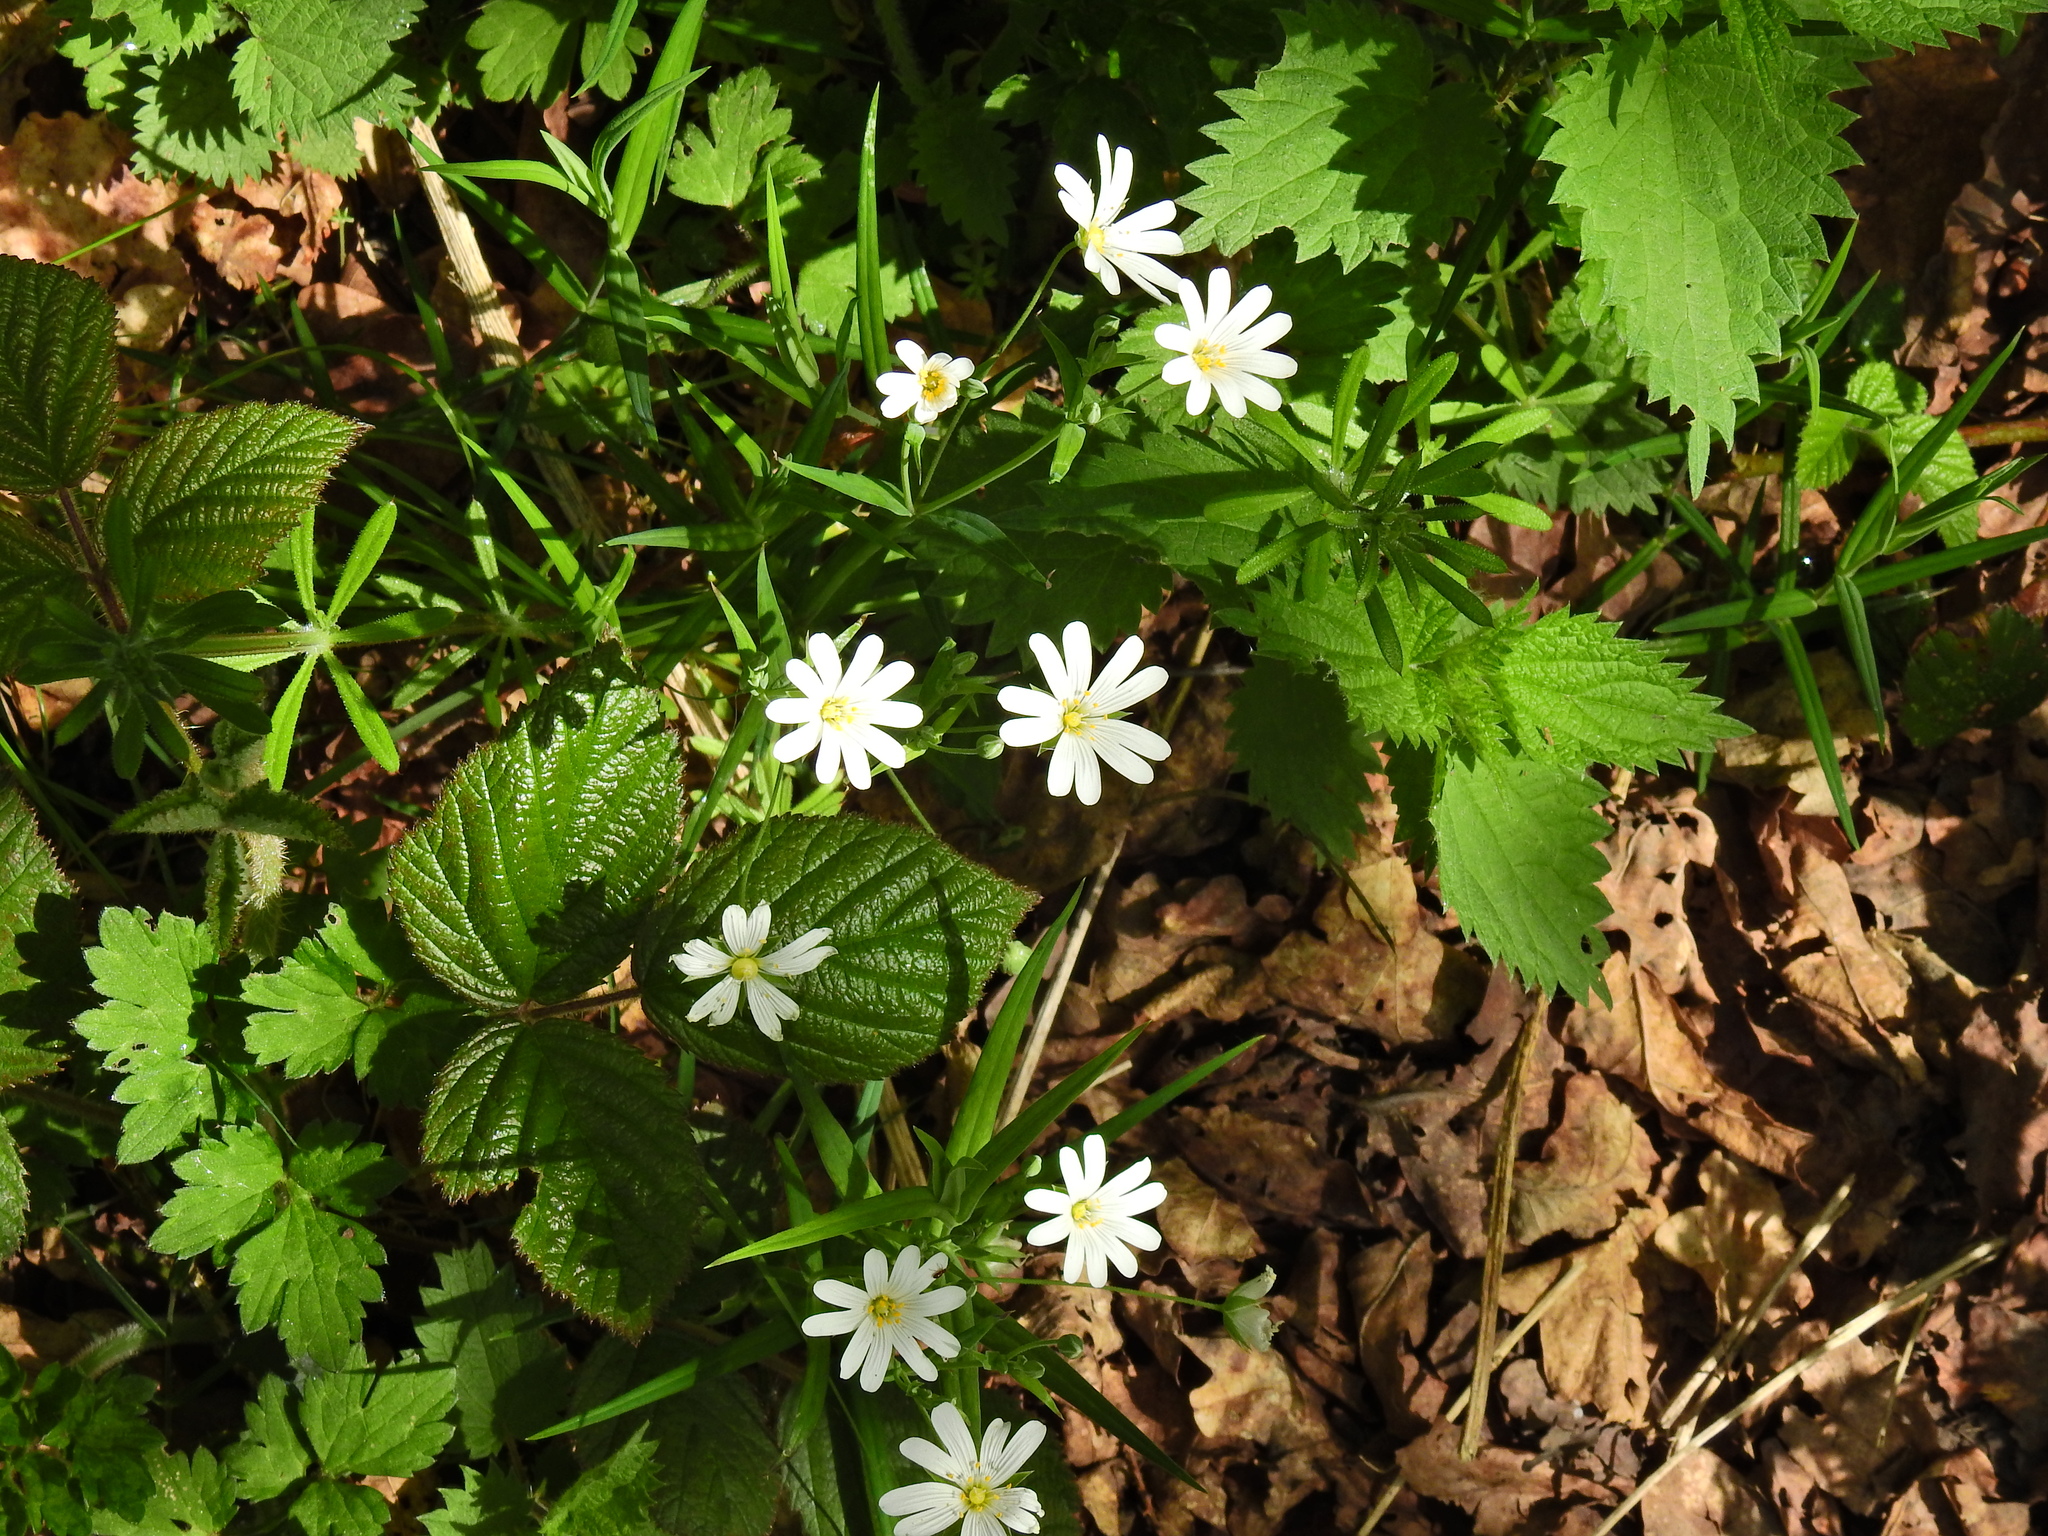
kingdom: Plantae
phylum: Tracheophyta
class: Magnoliopsida
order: Caryophyllales
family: Caryophyllaceae
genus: Rabelera
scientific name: Rabelera holostea
